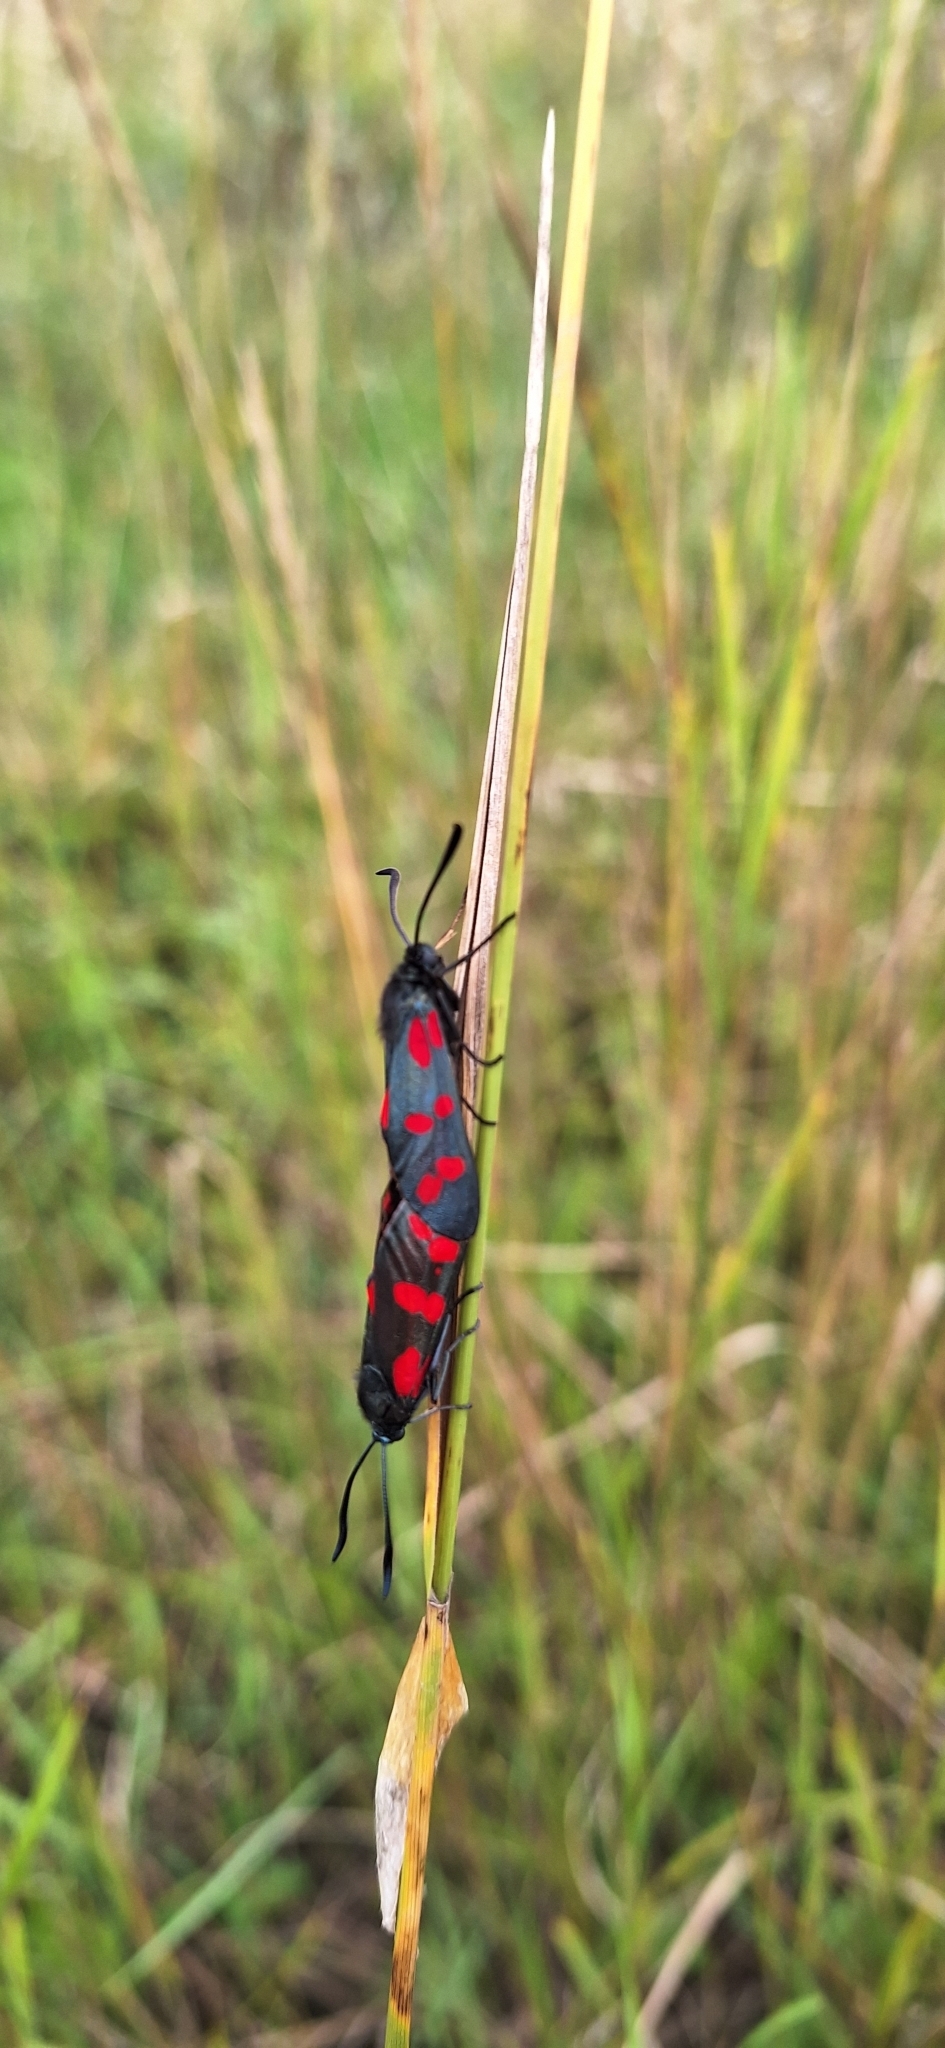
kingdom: Animalia
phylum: Arthropoda
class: Insecta
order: Lepidoptera
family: Zygaenidae
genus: Zygaena
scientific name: Zygaena filipendulae
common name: Six-spot burnet
